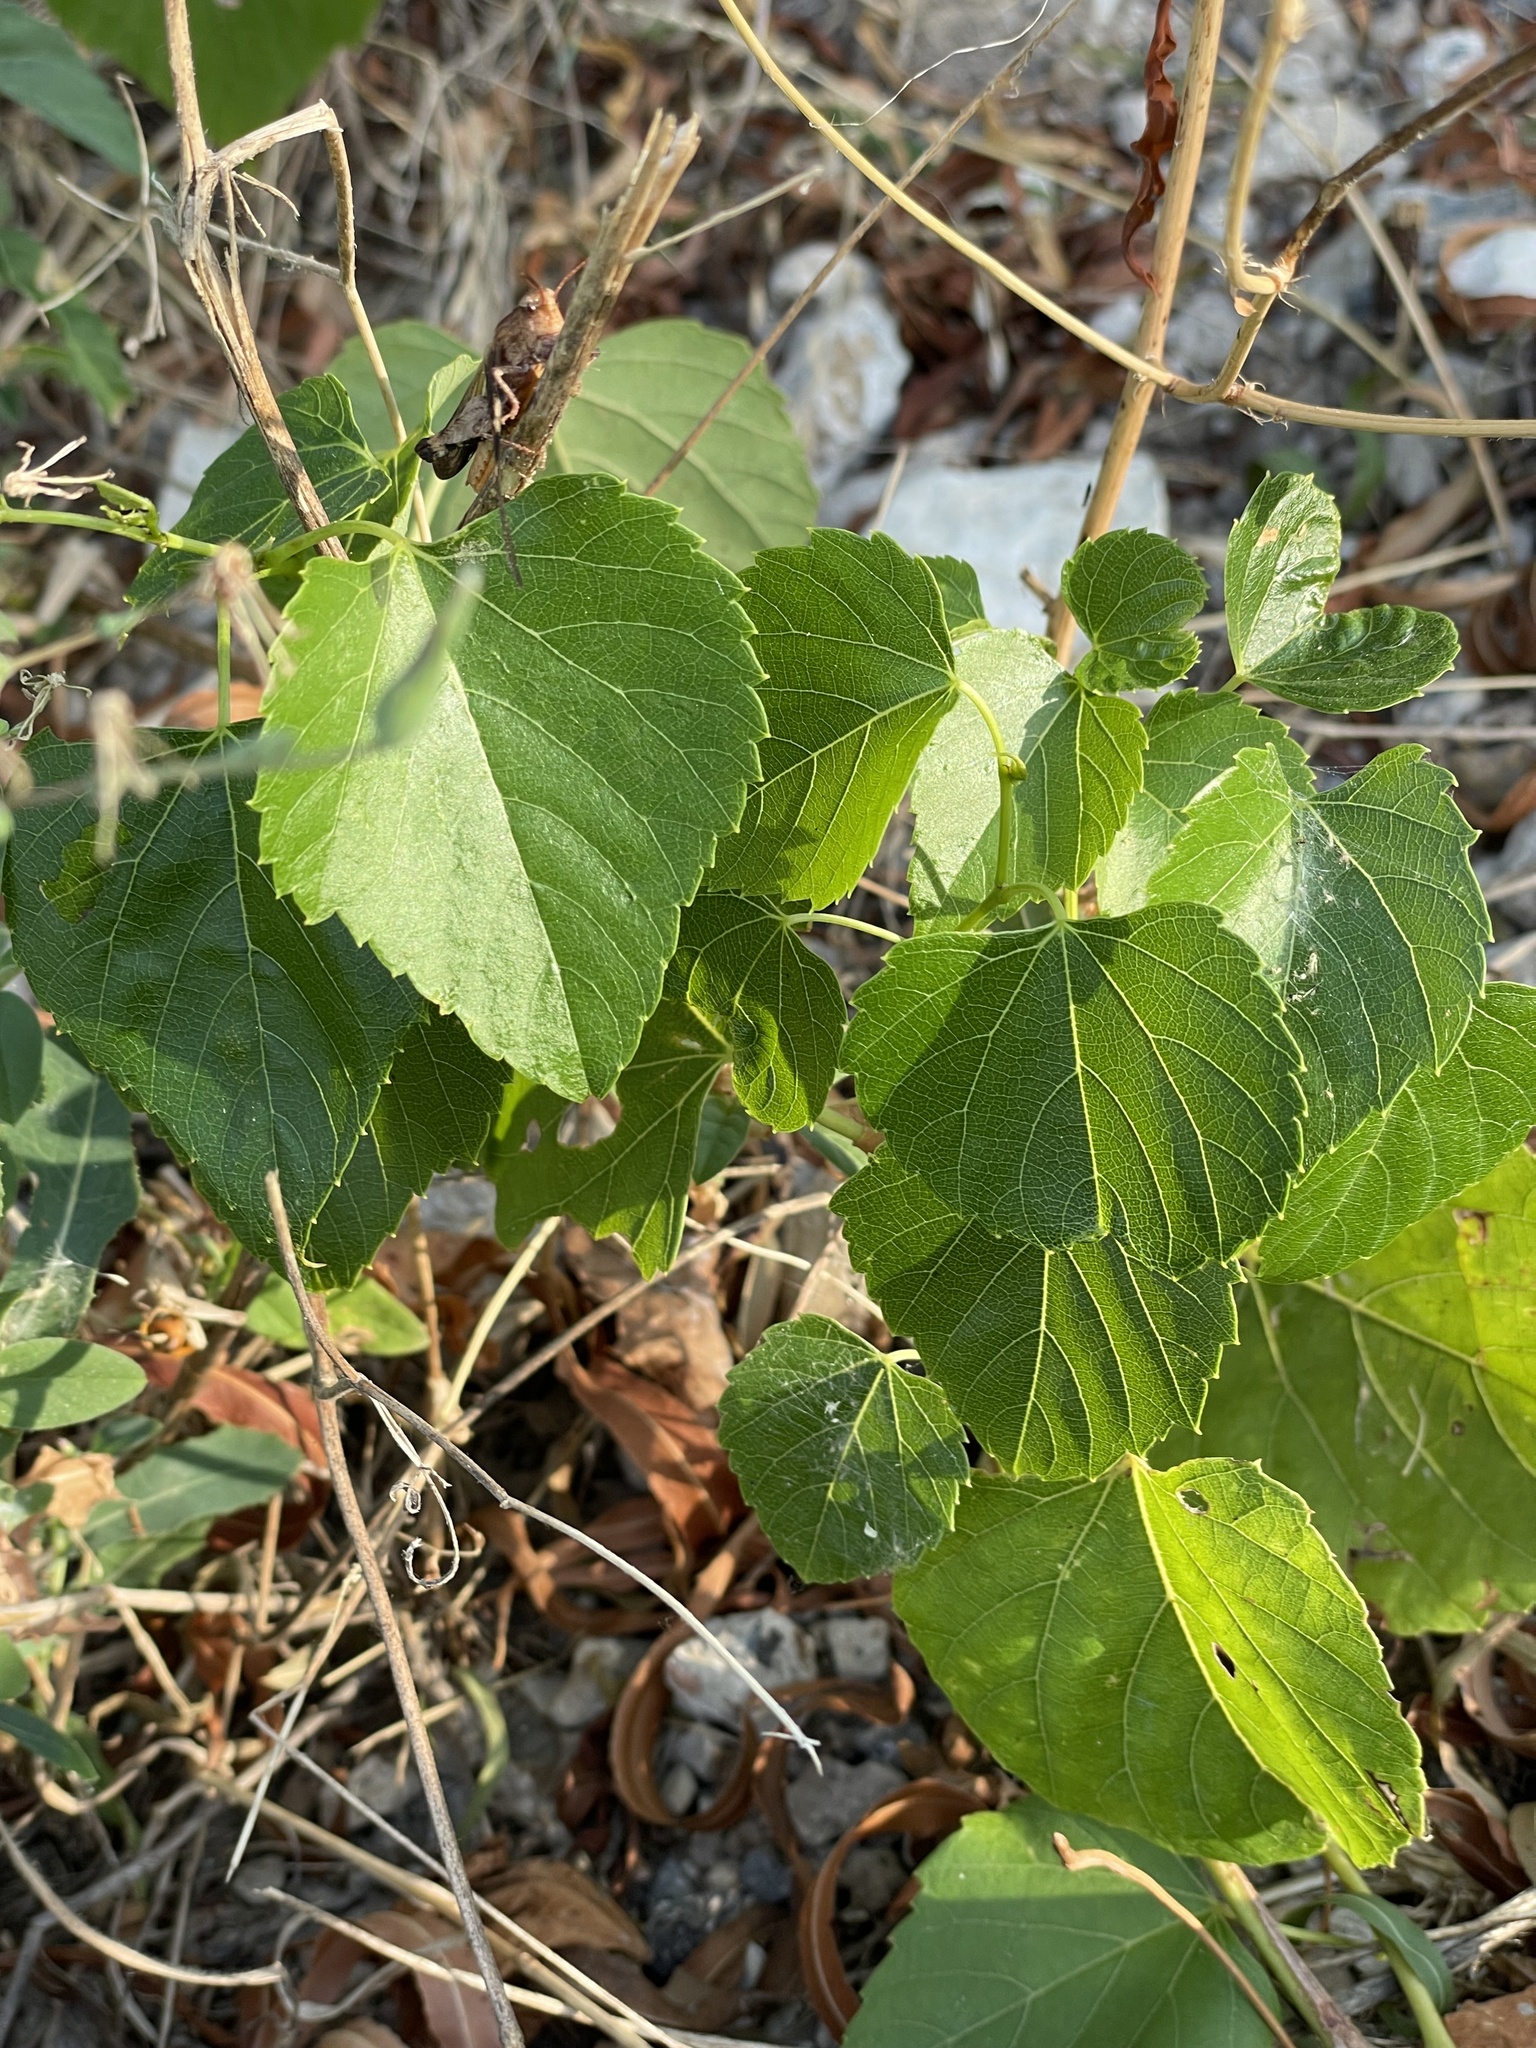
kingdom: Plantae
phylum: Tracheophyta
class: Magnoliopsida
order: Vitales
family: Vitaceae
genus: Ampelopsis
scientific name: Ampelopsis cordata
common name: Heart-leaf ampelopsis
